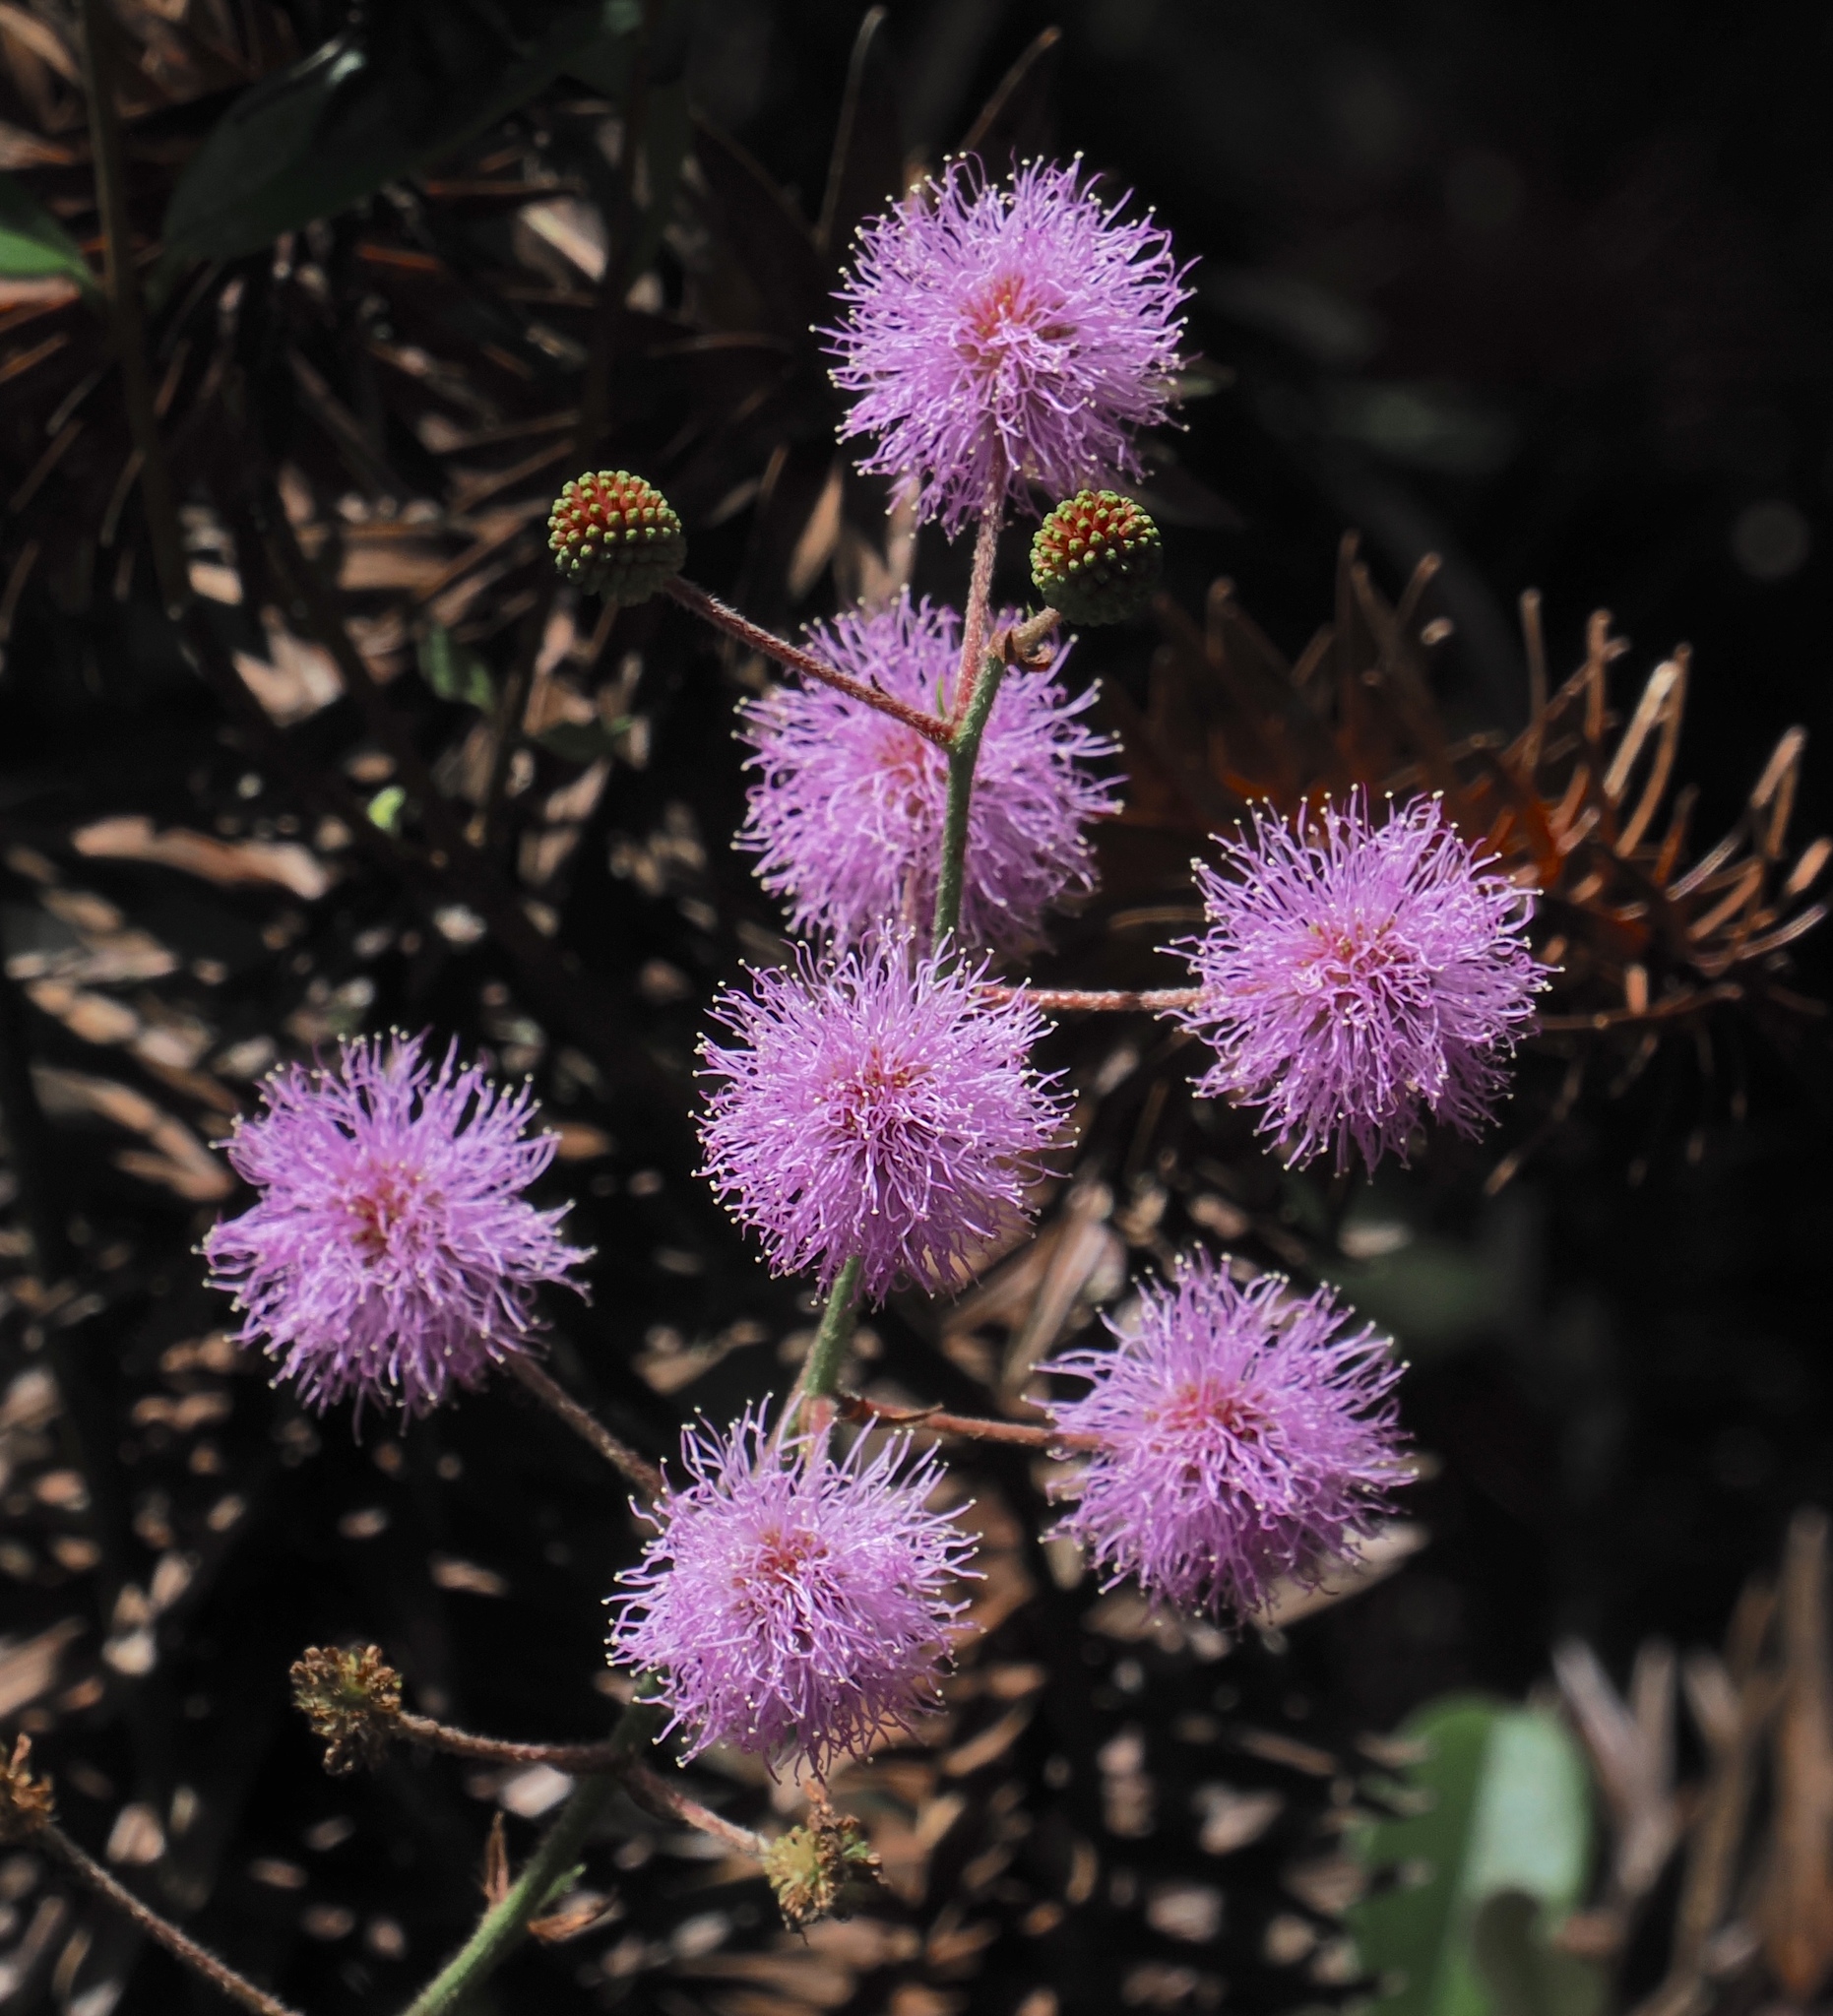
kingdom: Plantae
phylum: Tracheophyta
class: Magnoliopsida
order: Fabales
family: Fabaceae
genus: Mimosa
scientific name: Mimosa pudica
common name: Sensitive plant
